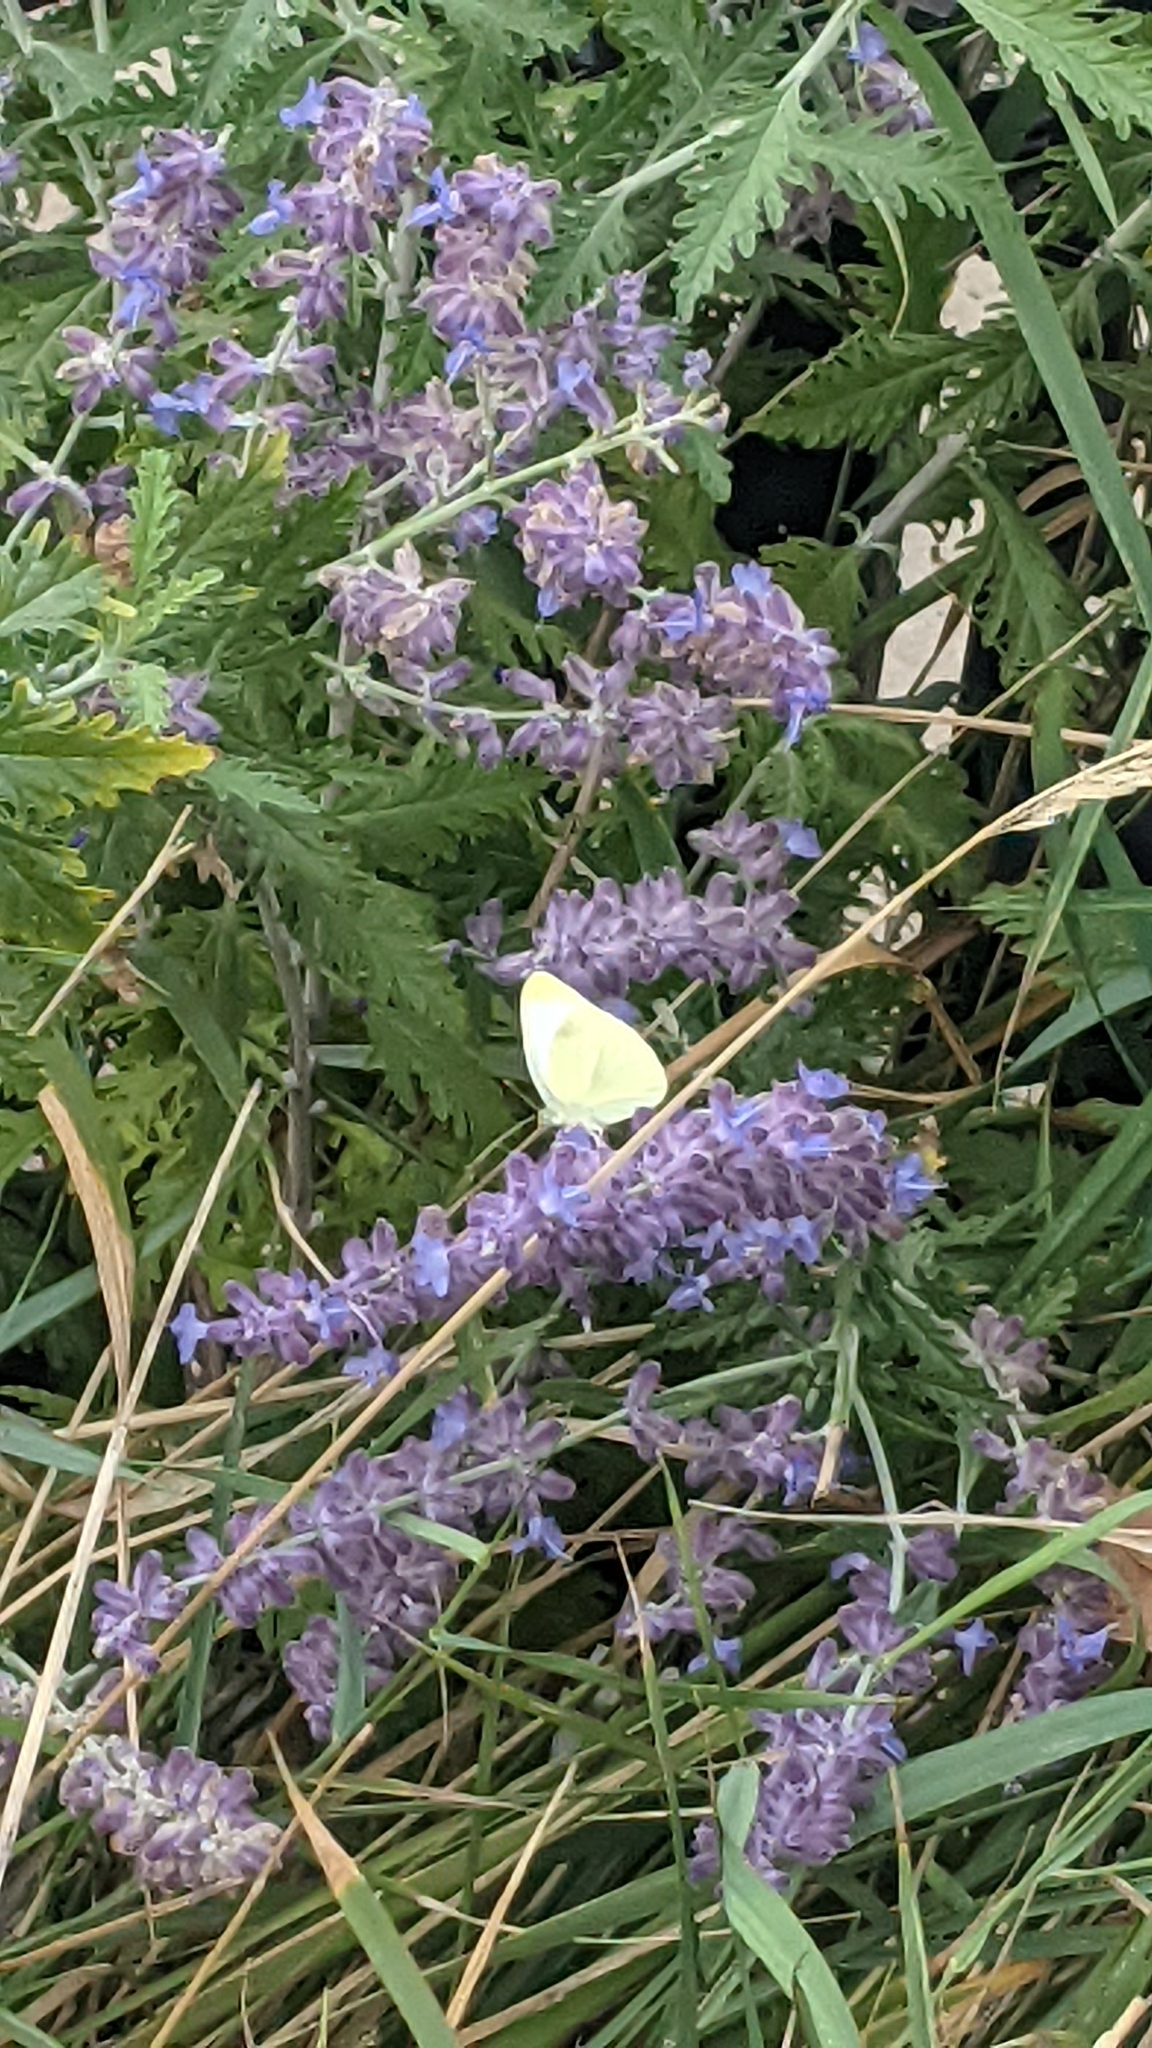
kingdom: Animalia
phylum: Arthropoda
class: Insecta
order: Lepidoptera
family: Pieridae
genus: Pieris
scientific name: Pieris rapae
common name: Small white
